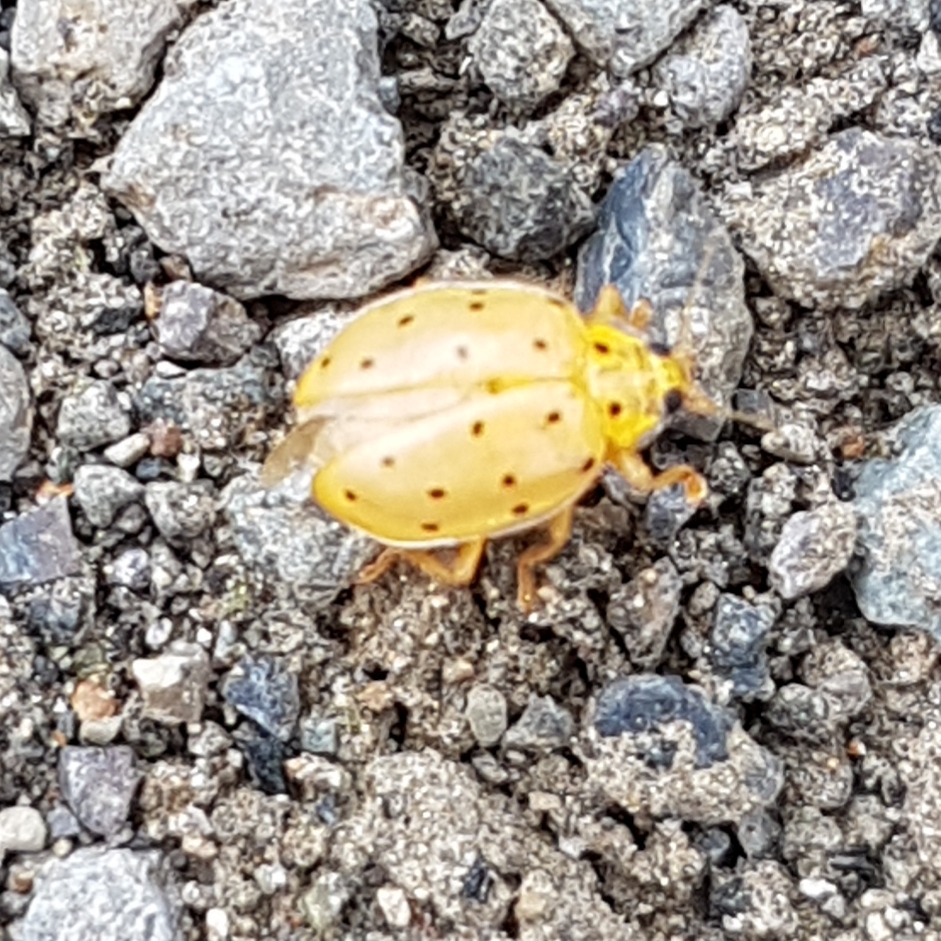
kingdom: Animalia
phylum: Arthropoda
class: Insecta
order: Coleoptera
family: Coccinellidae
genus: Neohalyzia
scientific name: Neohalyzia
